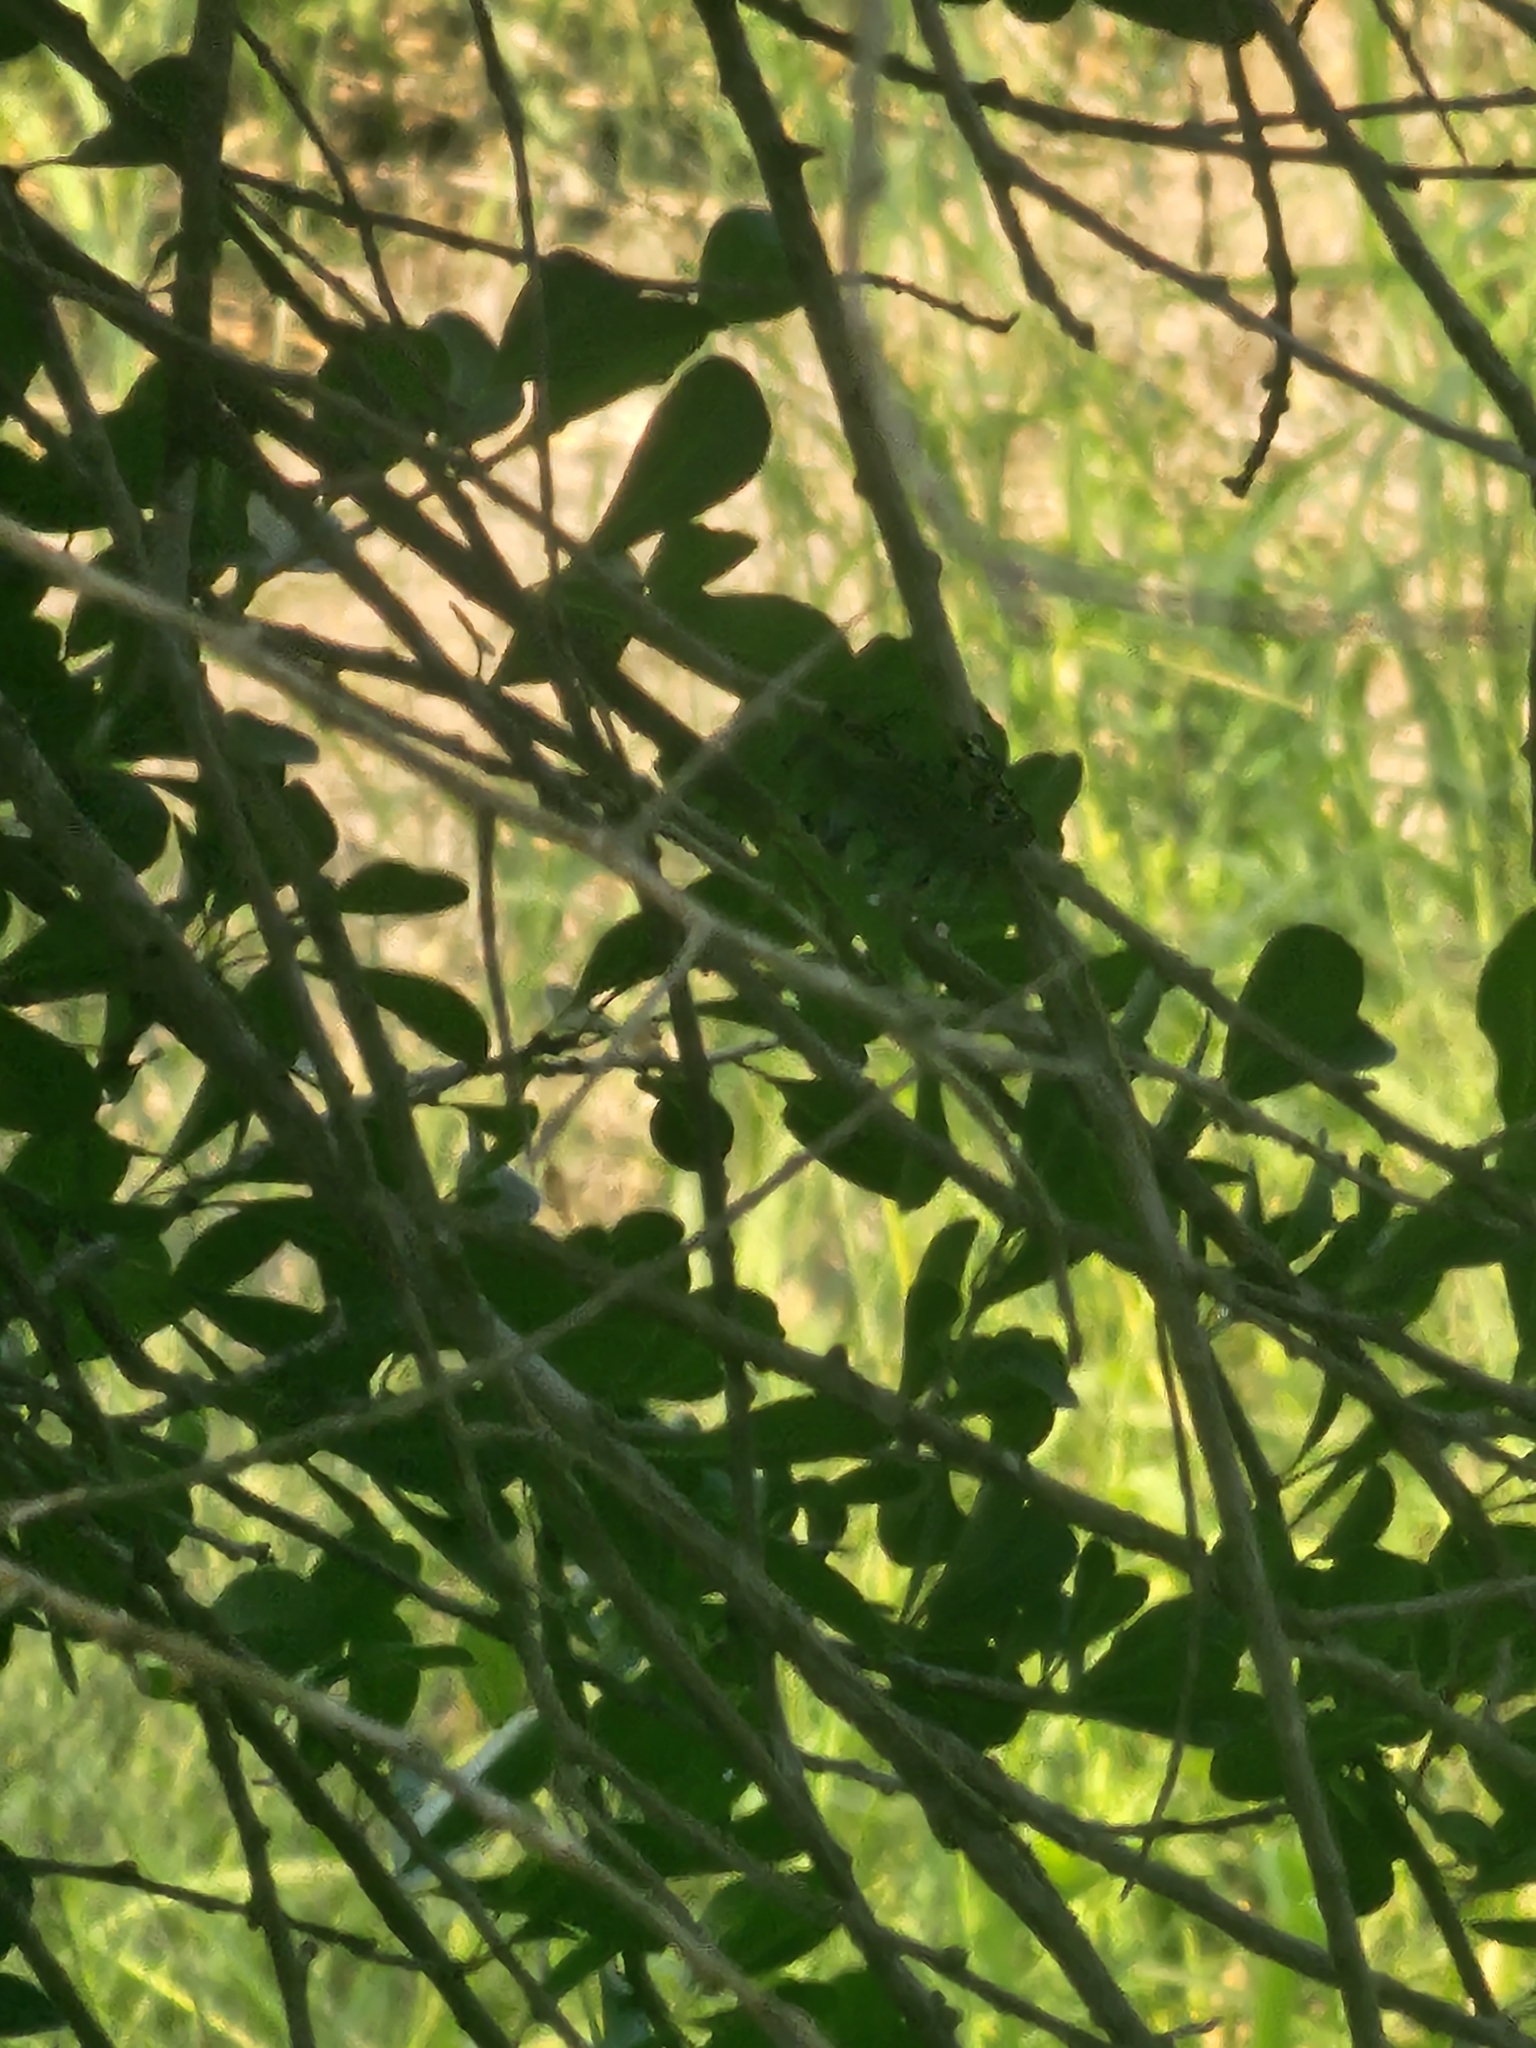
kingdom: Animalia
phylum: Arthropoda
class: Insecta
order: Lepidoptera
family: Nymphalidae
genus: Myscelia
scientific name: Myscelia ethusa
